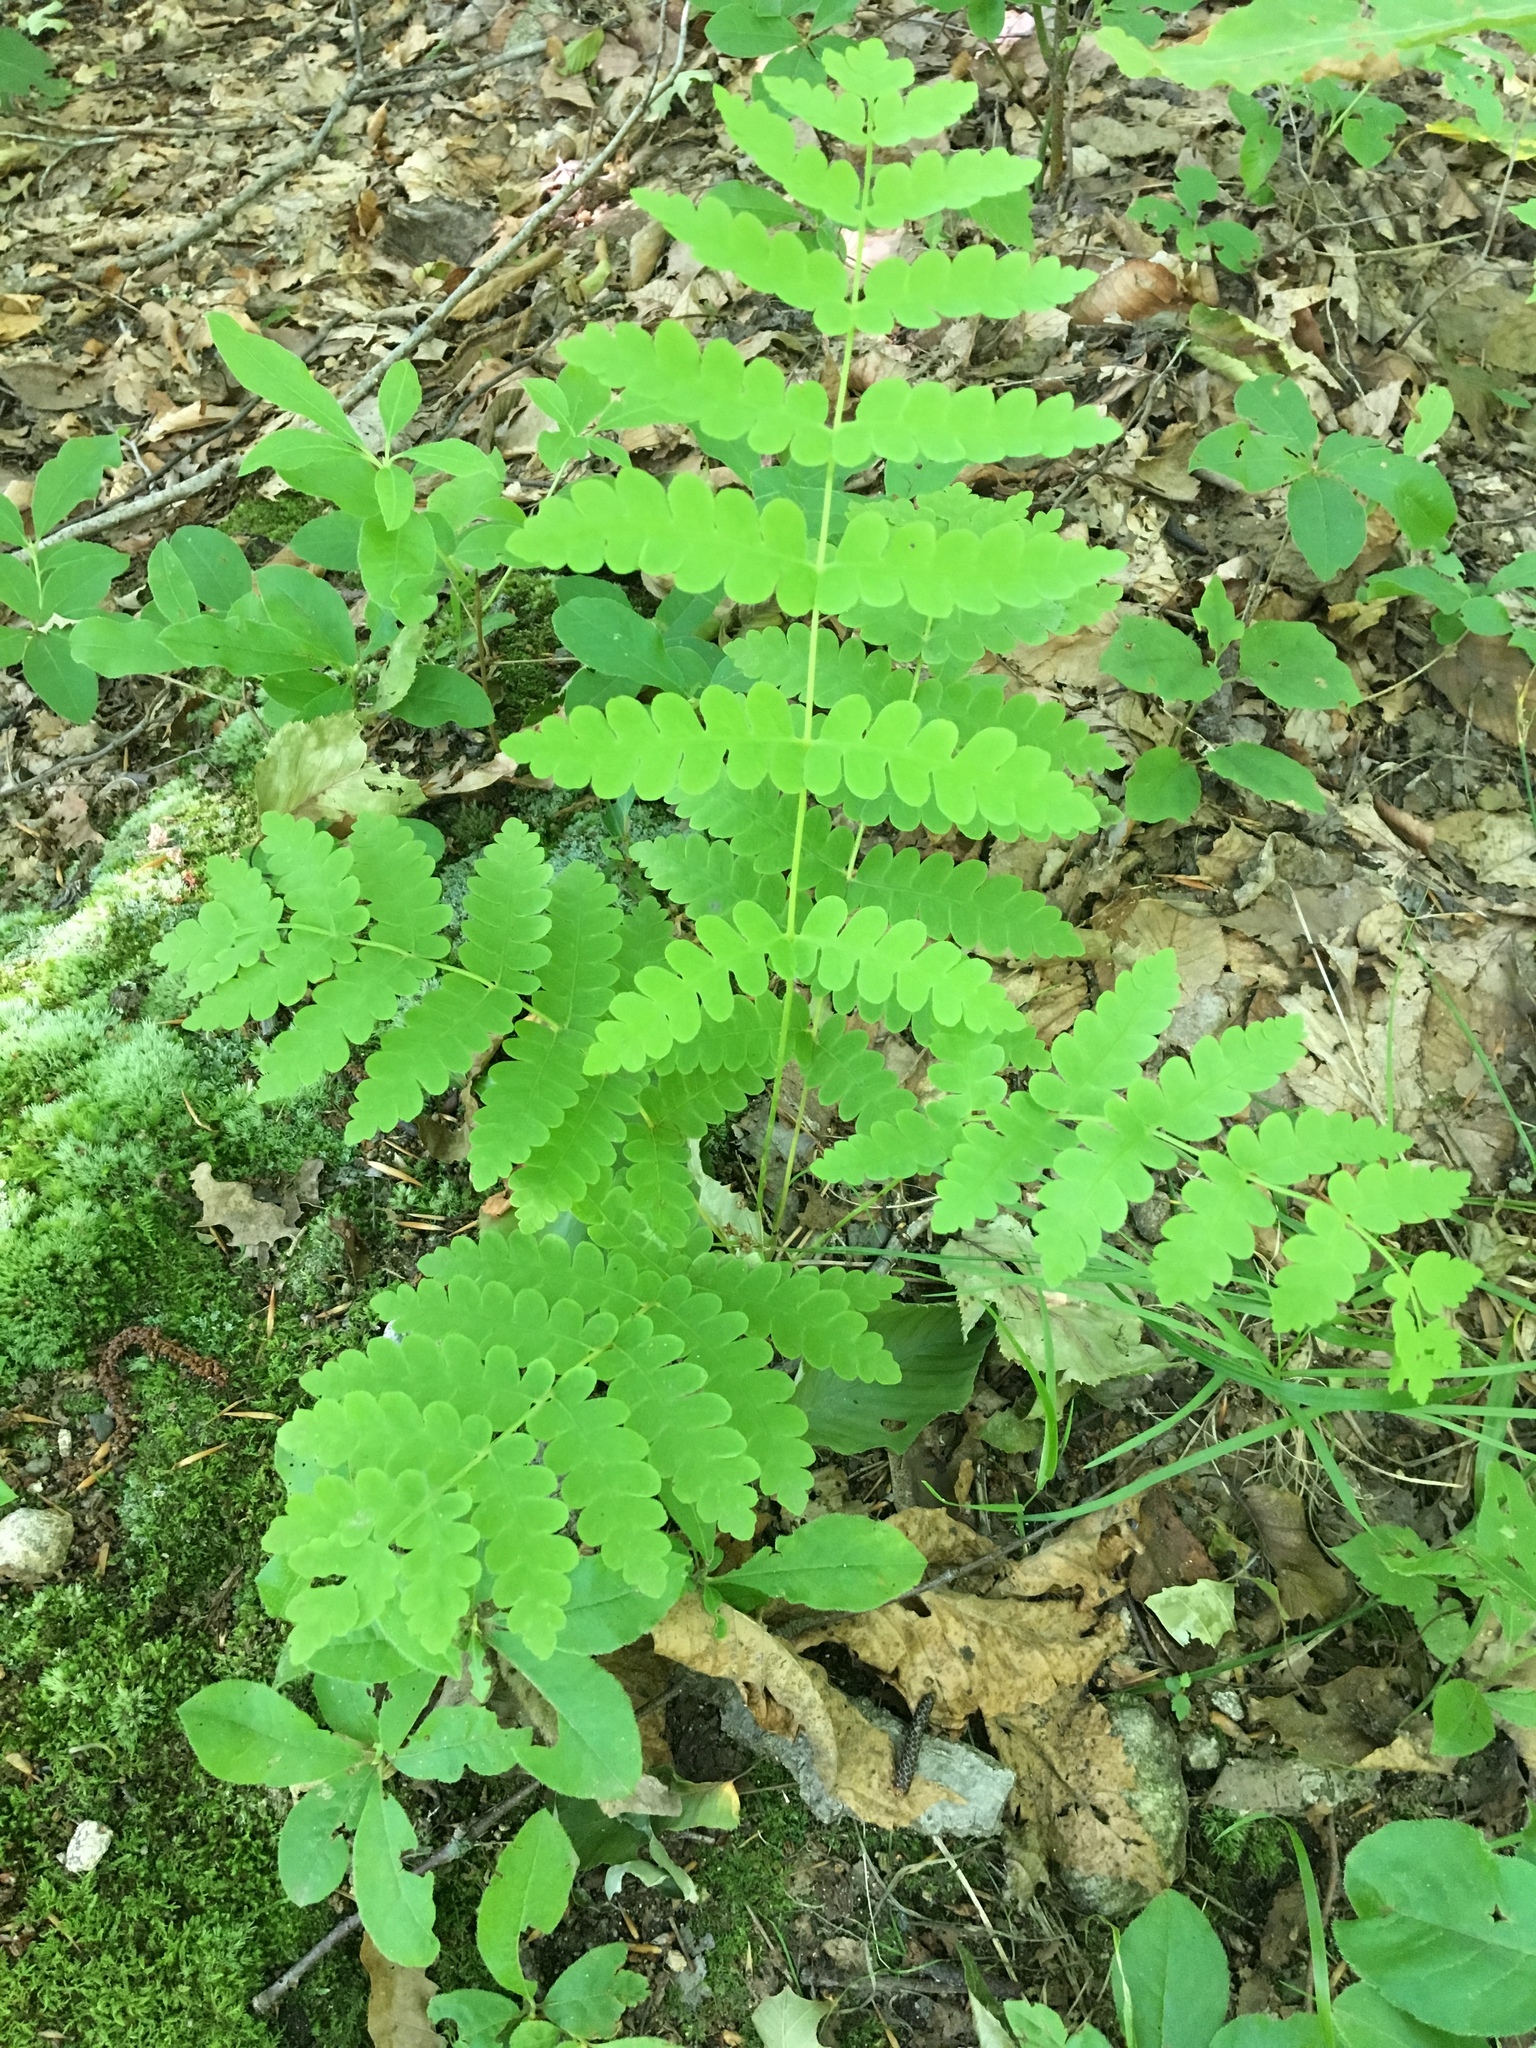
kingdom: Plantae
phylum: Tracheophyta
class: Polypodiopsida
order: Osmundales
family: Osmundaceae
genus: Claytosmunda
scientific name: Claytosmunda claytoniana
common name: Clayton's fern
